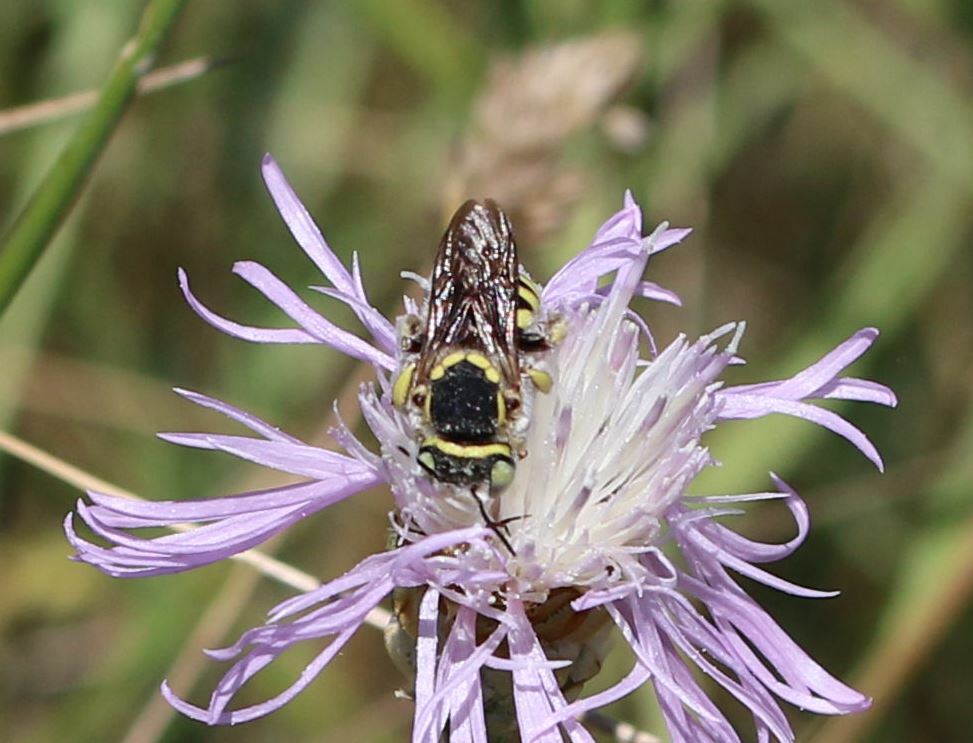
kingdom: Animalia
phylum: Arthropoda
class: Insecta
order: Hymenoptera
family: Megachilidae
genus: Anthidium
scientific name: Anthidium diadema
